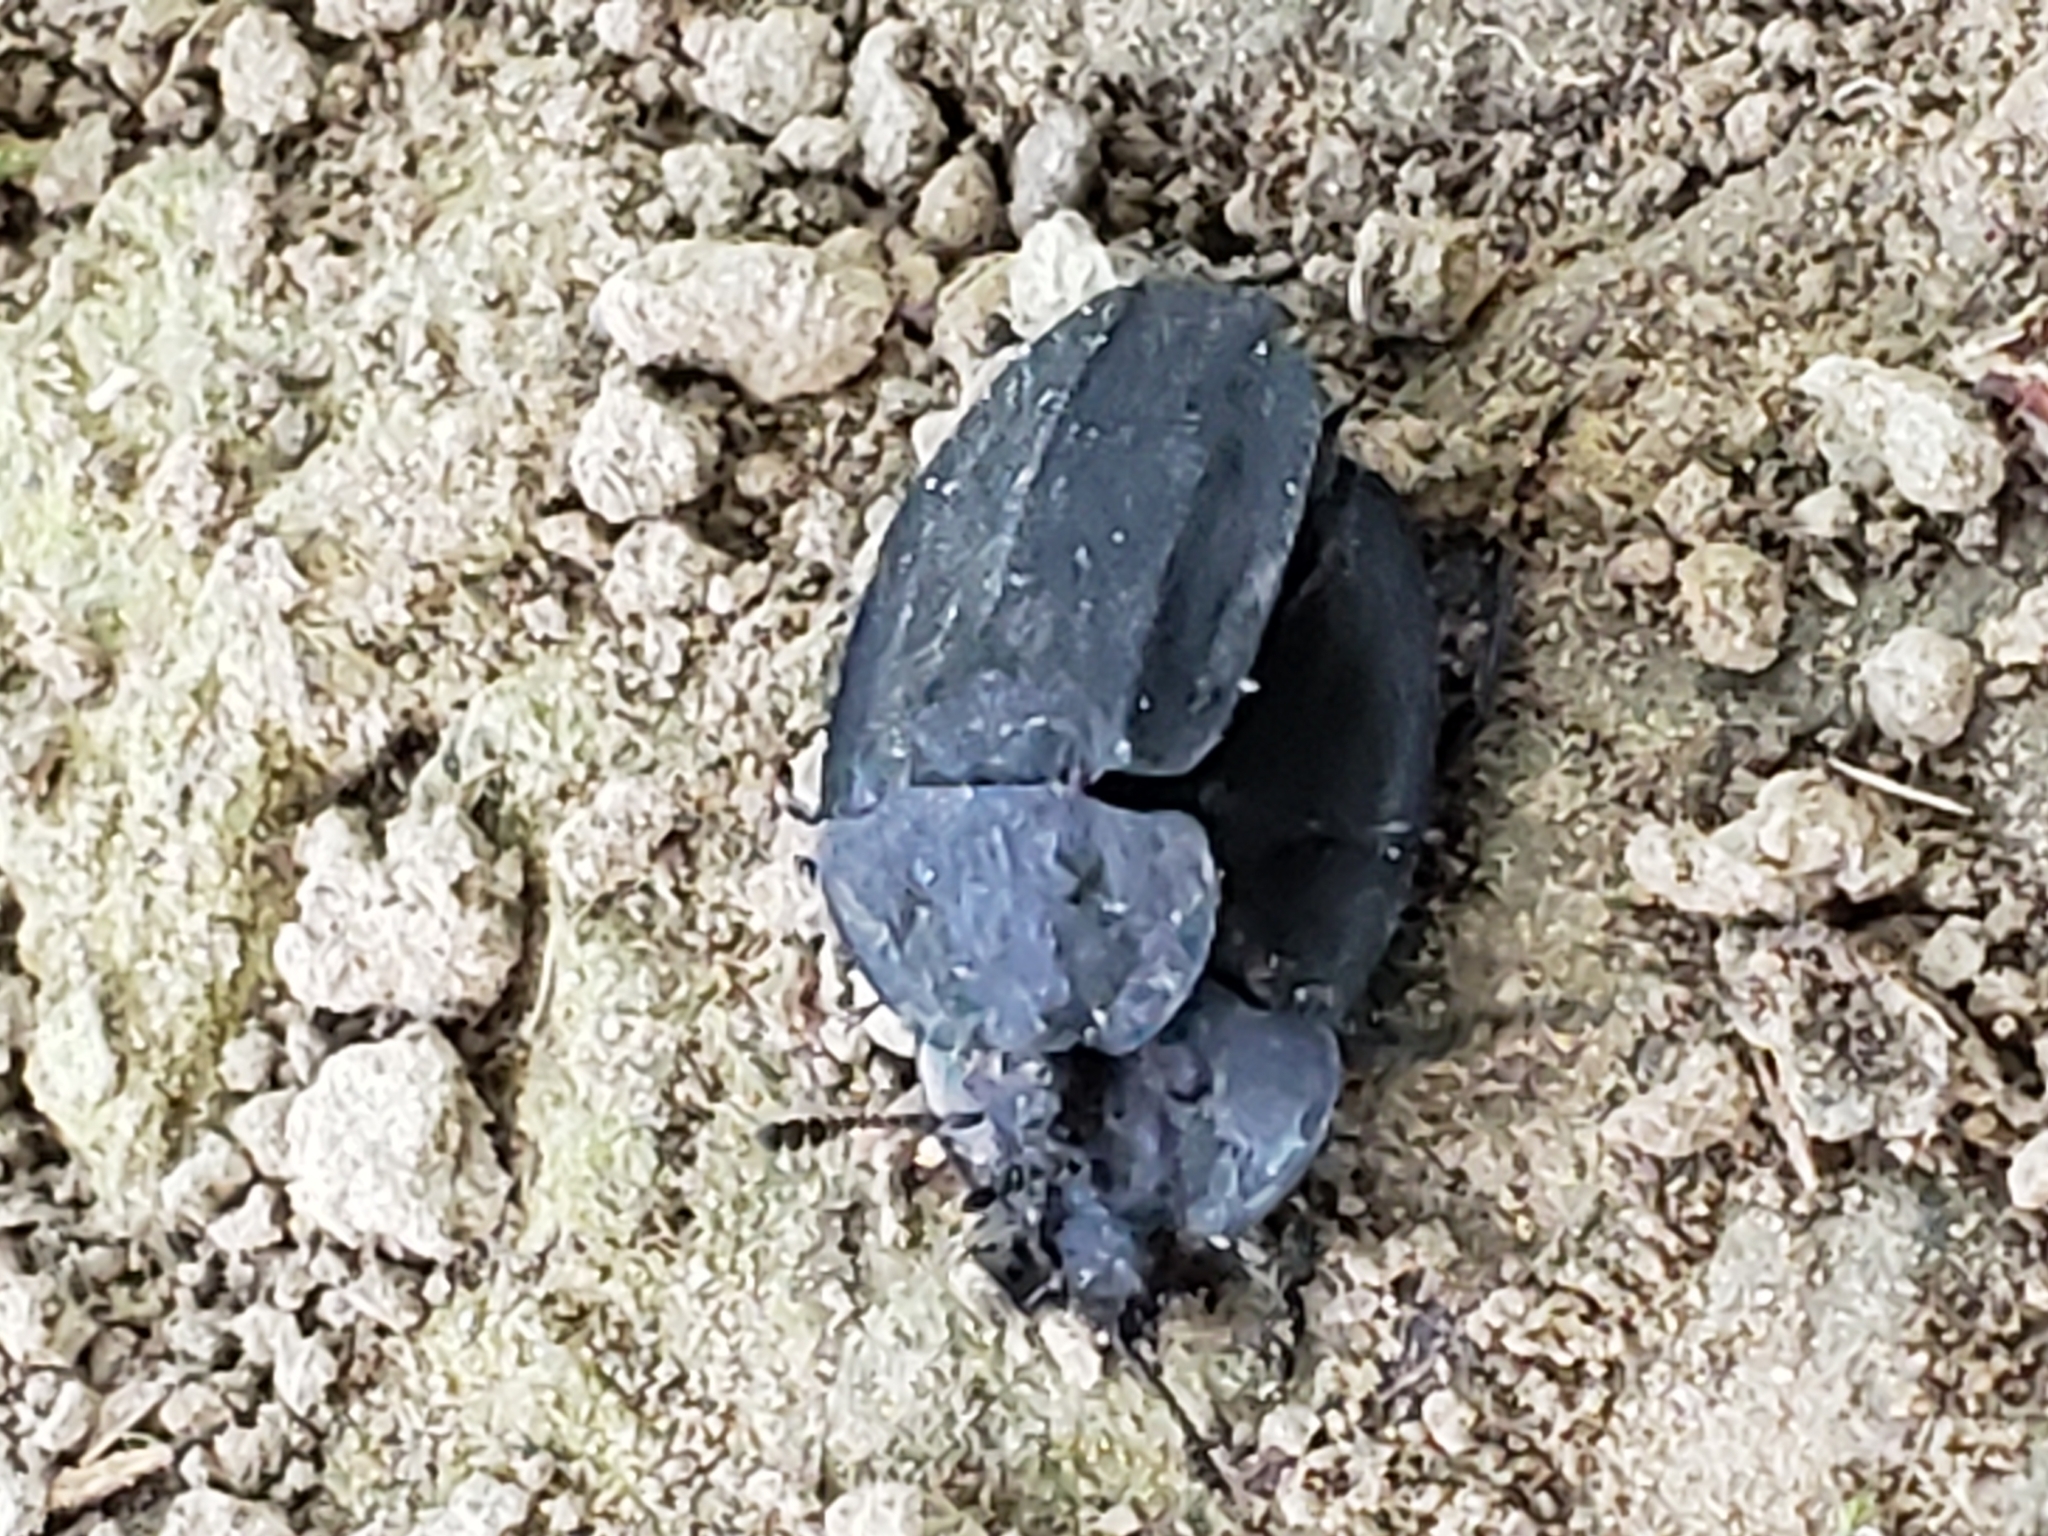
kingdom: Animalia
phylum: Arthropoda
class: Insecta
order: Coleoptera
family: Staphylinidae
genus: Oiceoptoma
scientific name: Oiceoptoma inaequale
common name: Ridged carrion beetle
